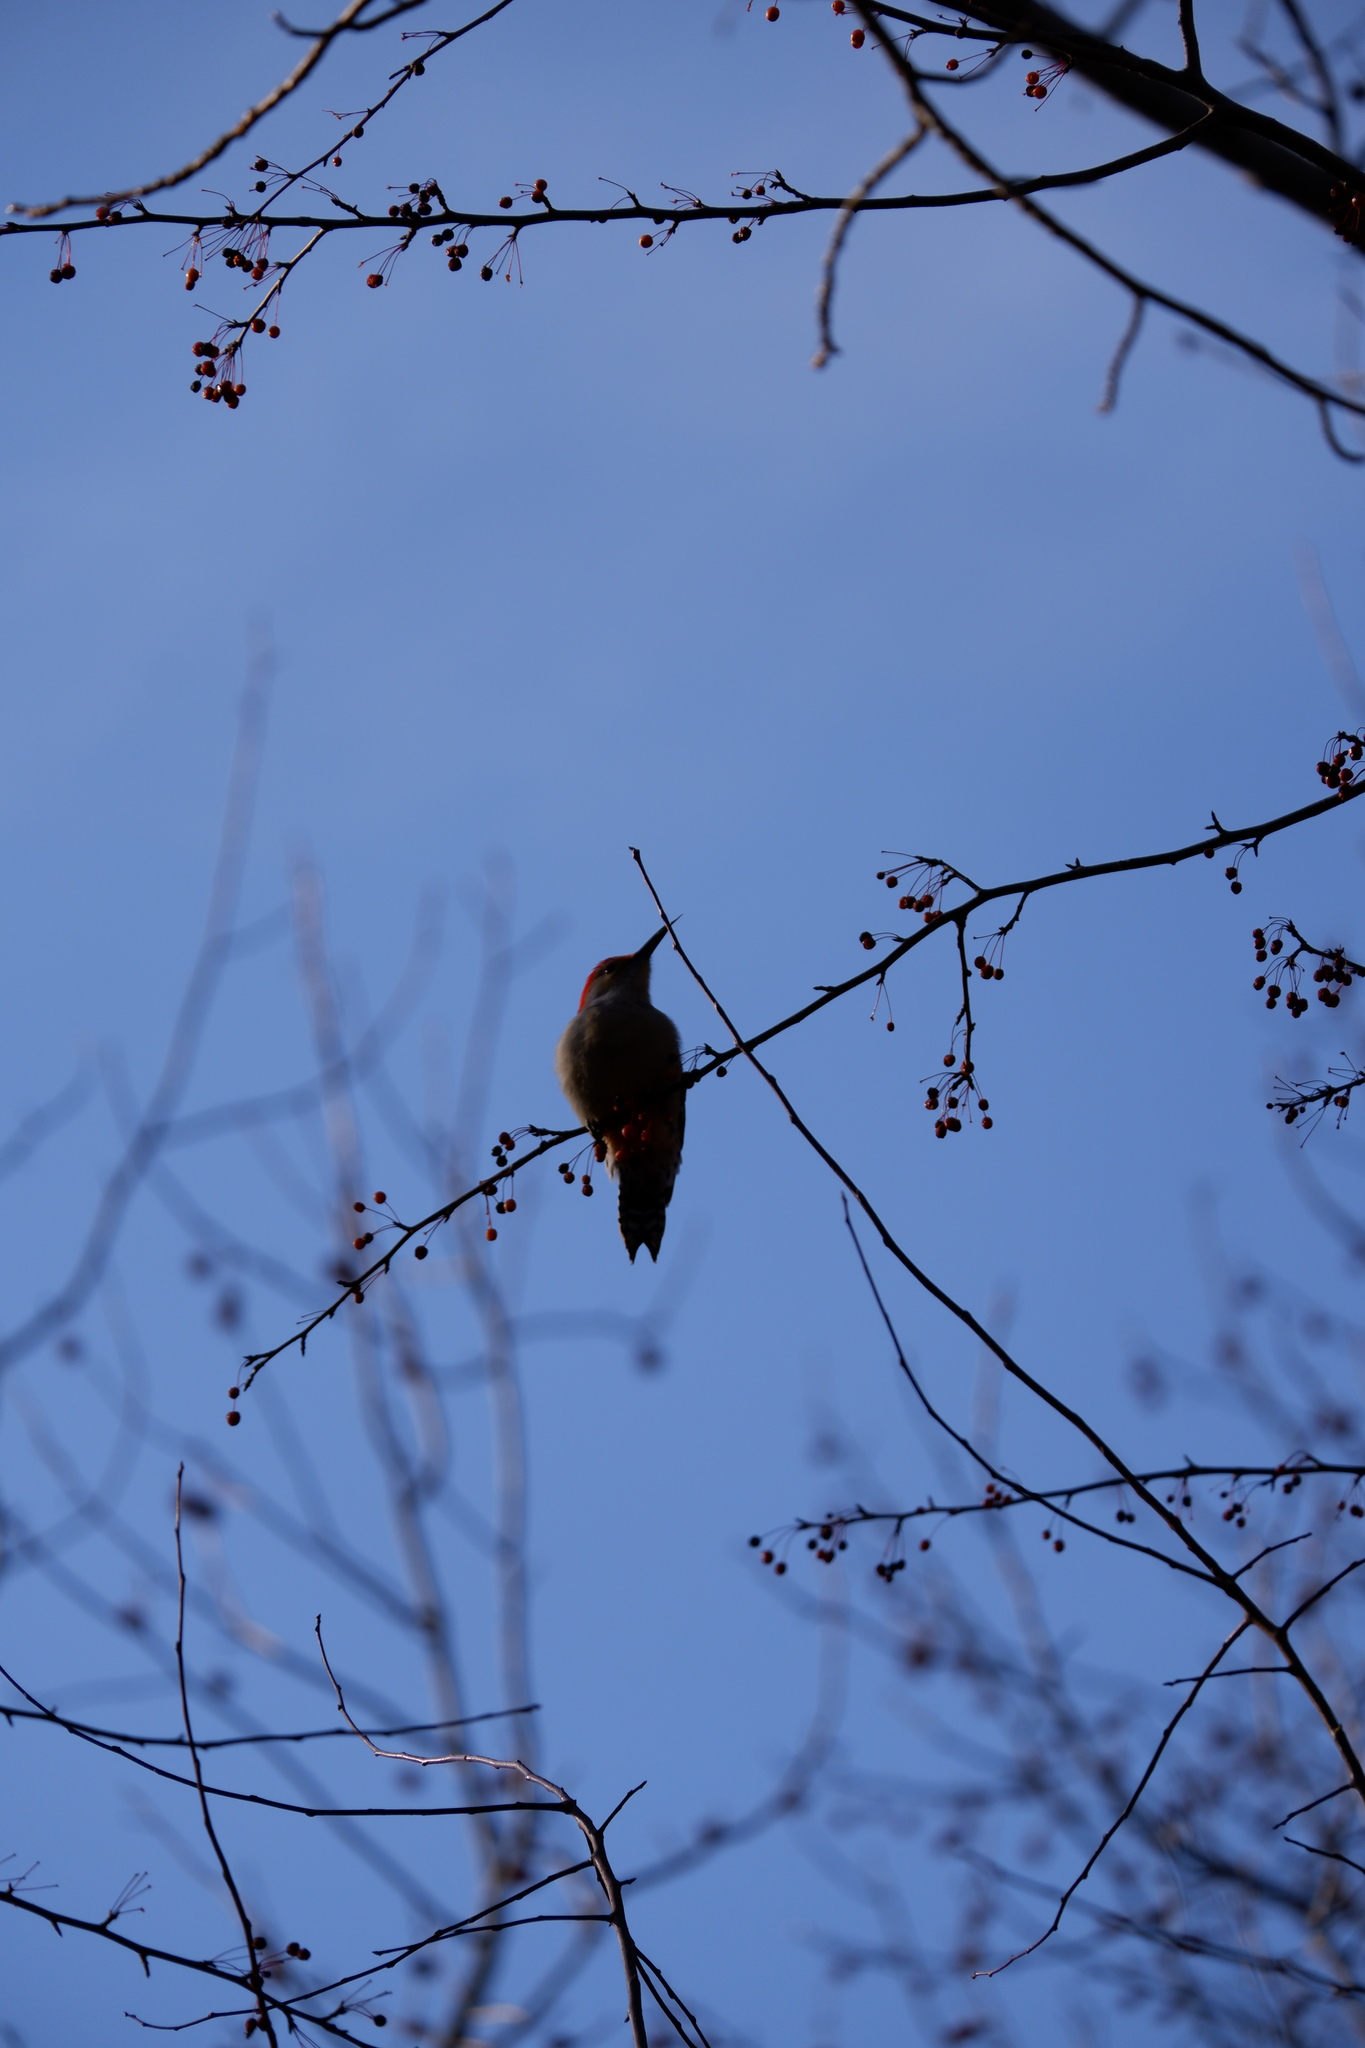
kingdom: Animalia
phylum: Chordata
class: Aves
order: Piciformes
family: Picidae
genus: Melanerpes
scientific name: Melanerpes carolinus
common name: Red-bellied woodpecker
